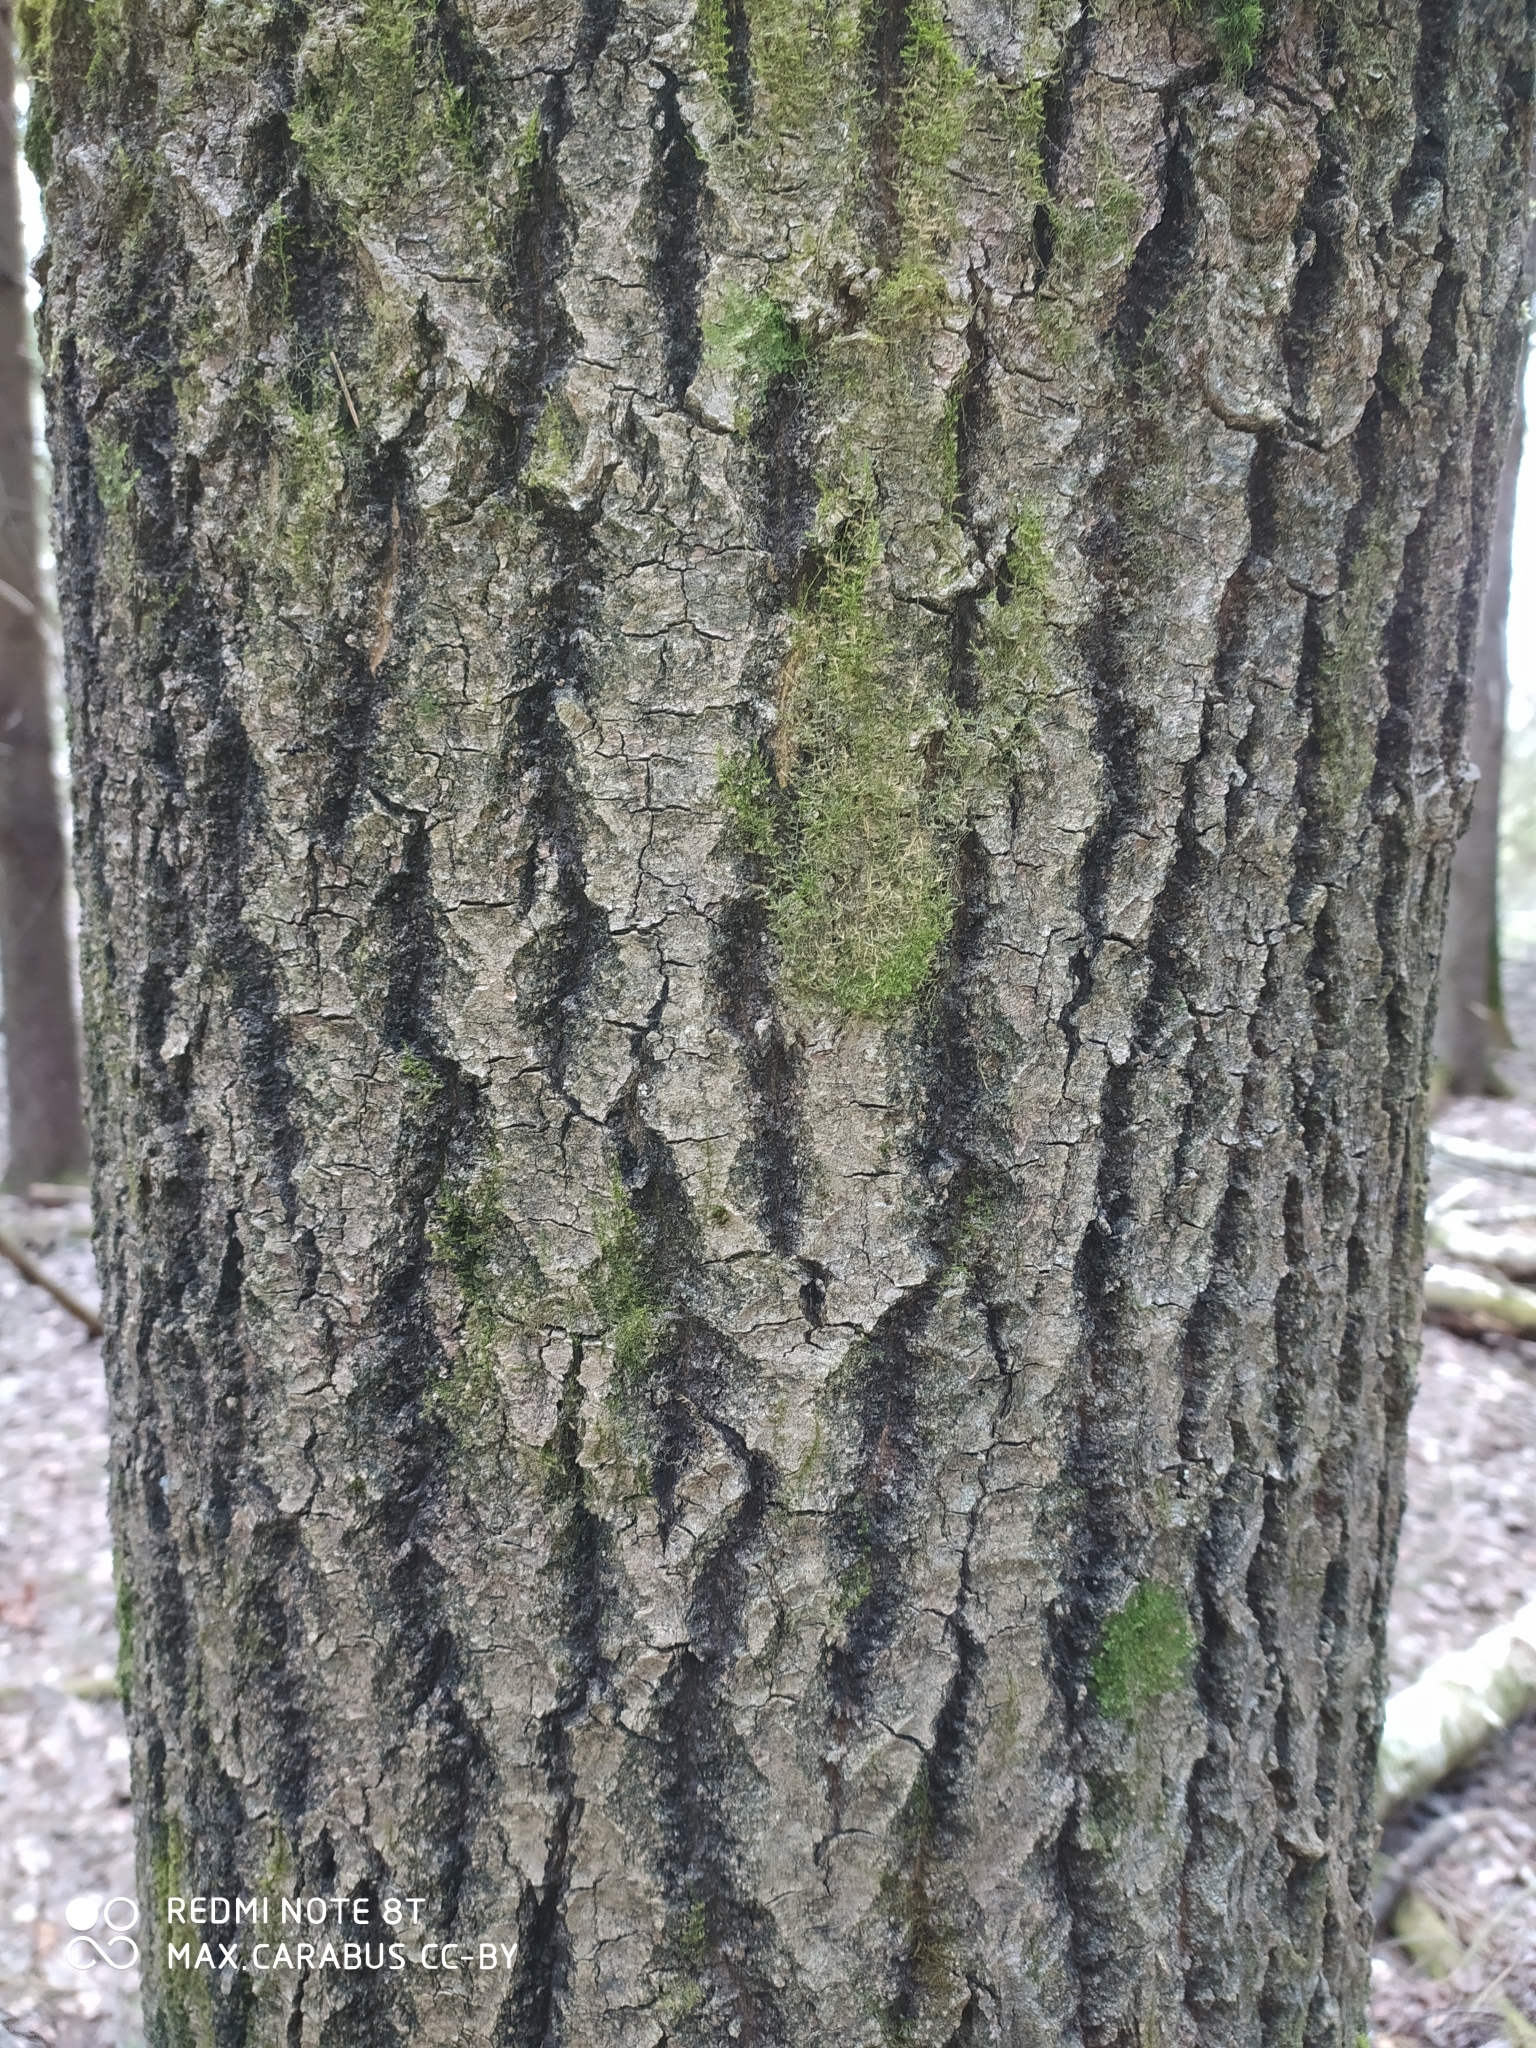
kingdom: Plantae
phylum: Tracheophyta
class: Magnoliopsida
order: Malpighiales
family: Salicaceae
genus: Populus
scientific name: Populus tremula
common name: European aspen
